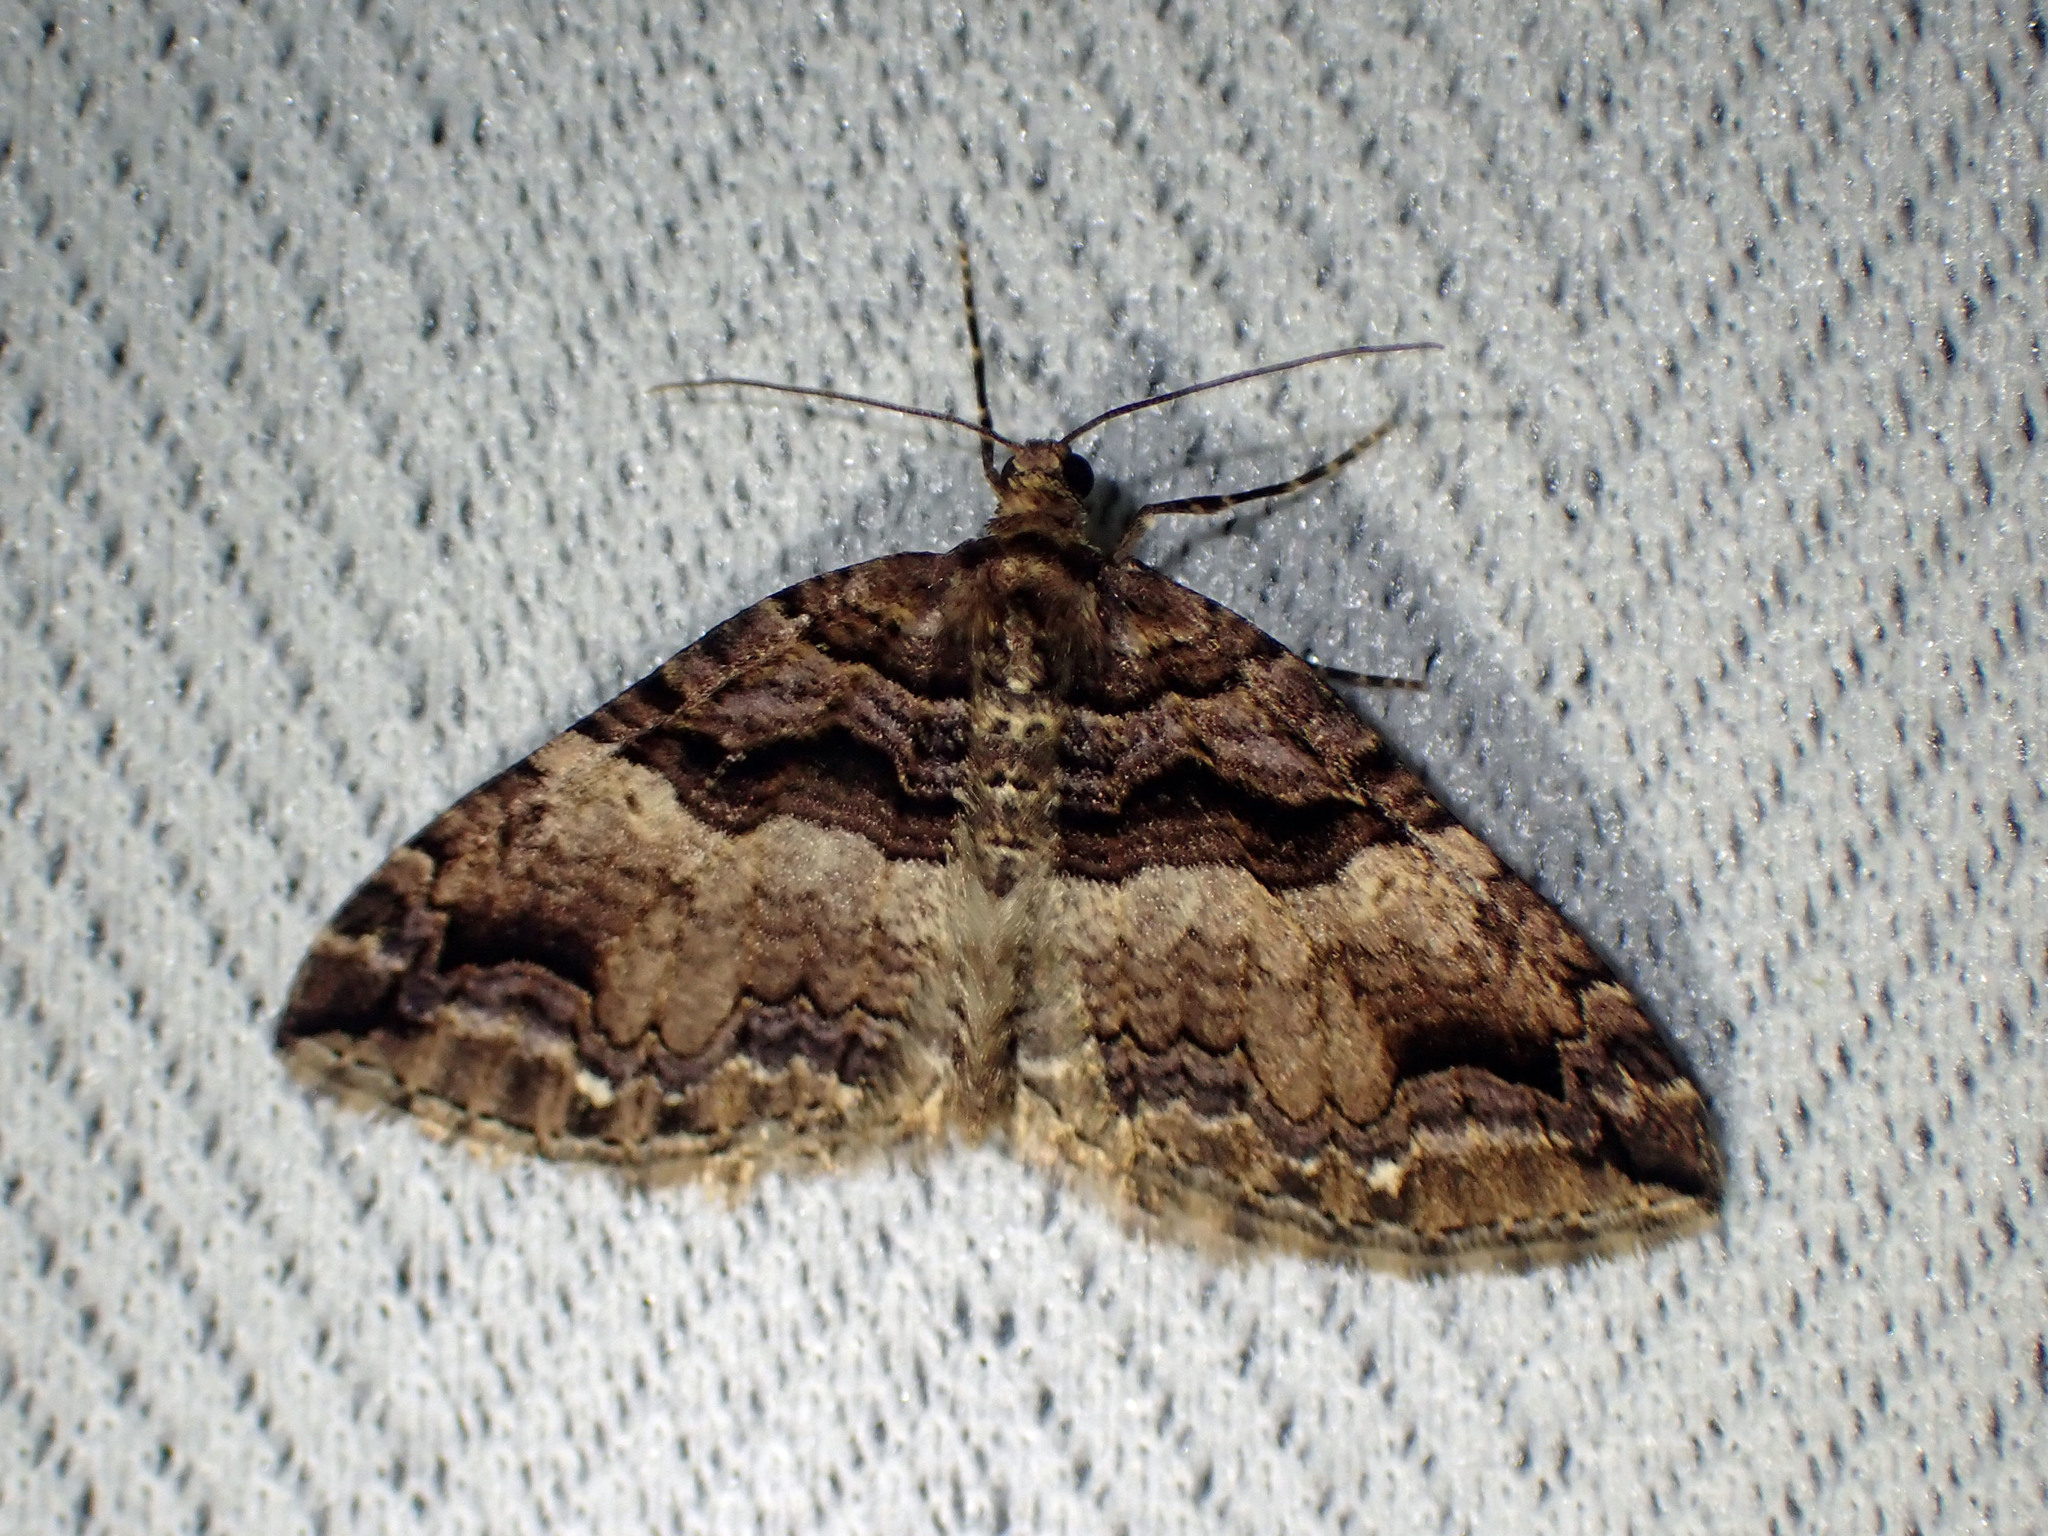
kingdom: Animalia
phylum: Arthropoda
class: Insecta
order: Lepidoptera
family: Geometridae
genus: Anticlea
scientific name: Anticlea vasiliata
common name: Variable carpet
